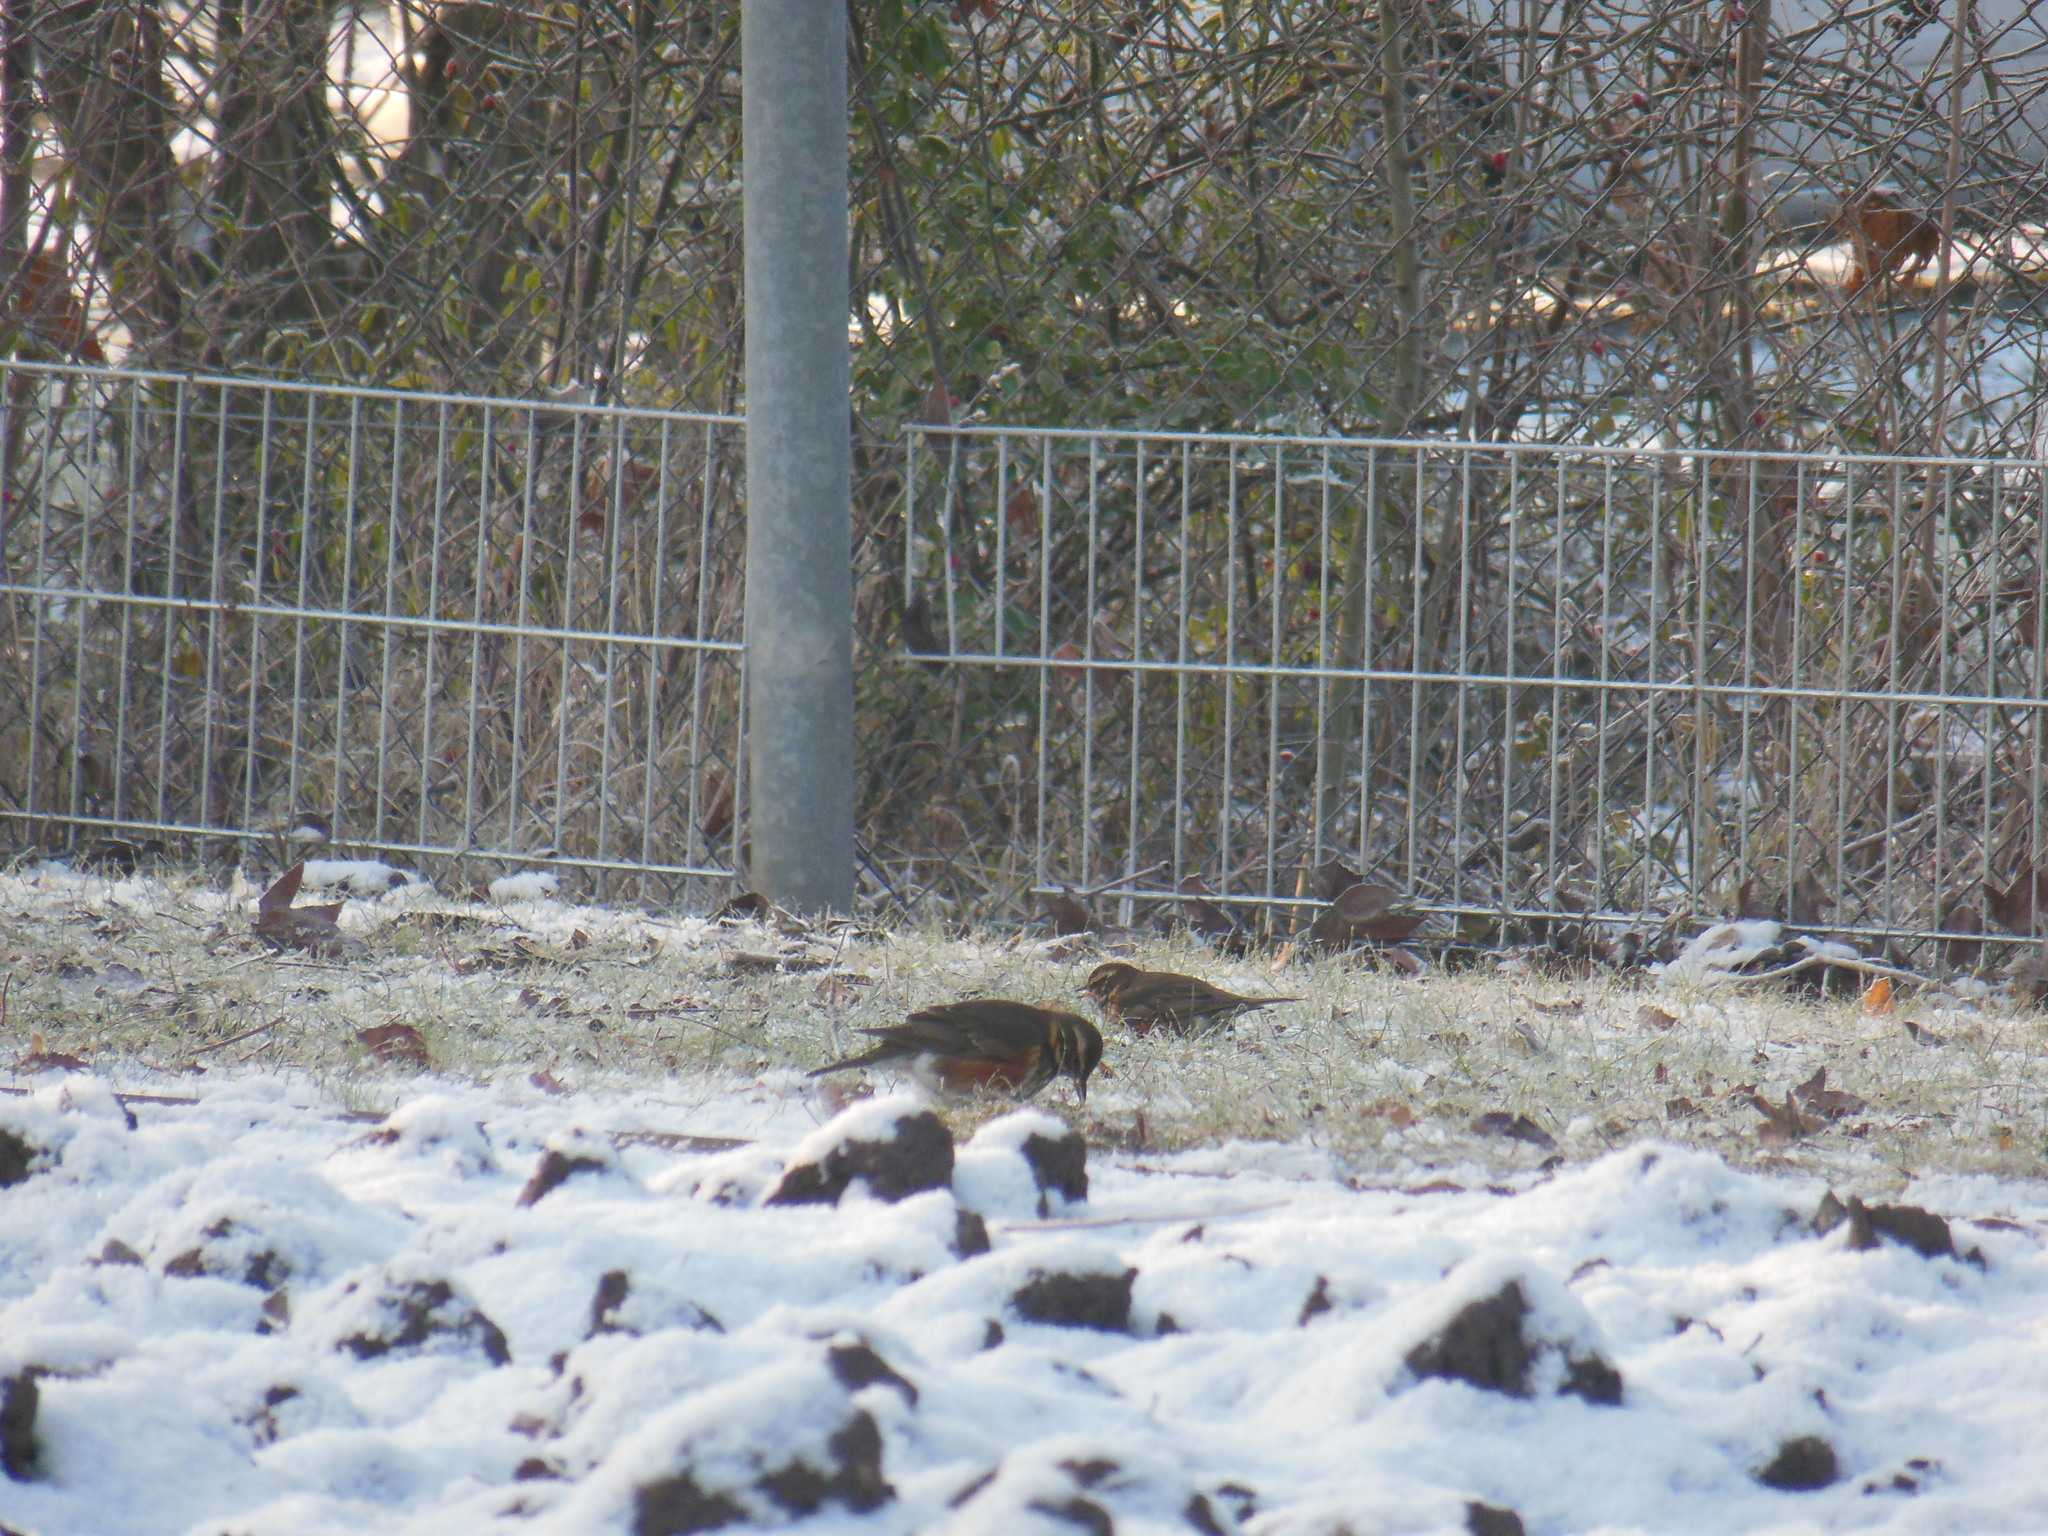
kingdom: Animalia
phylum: Chordata
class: Aves
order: Passeriformes
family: Turdidae
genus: Turdus
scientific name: Turdus iliacus
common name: Redwing
